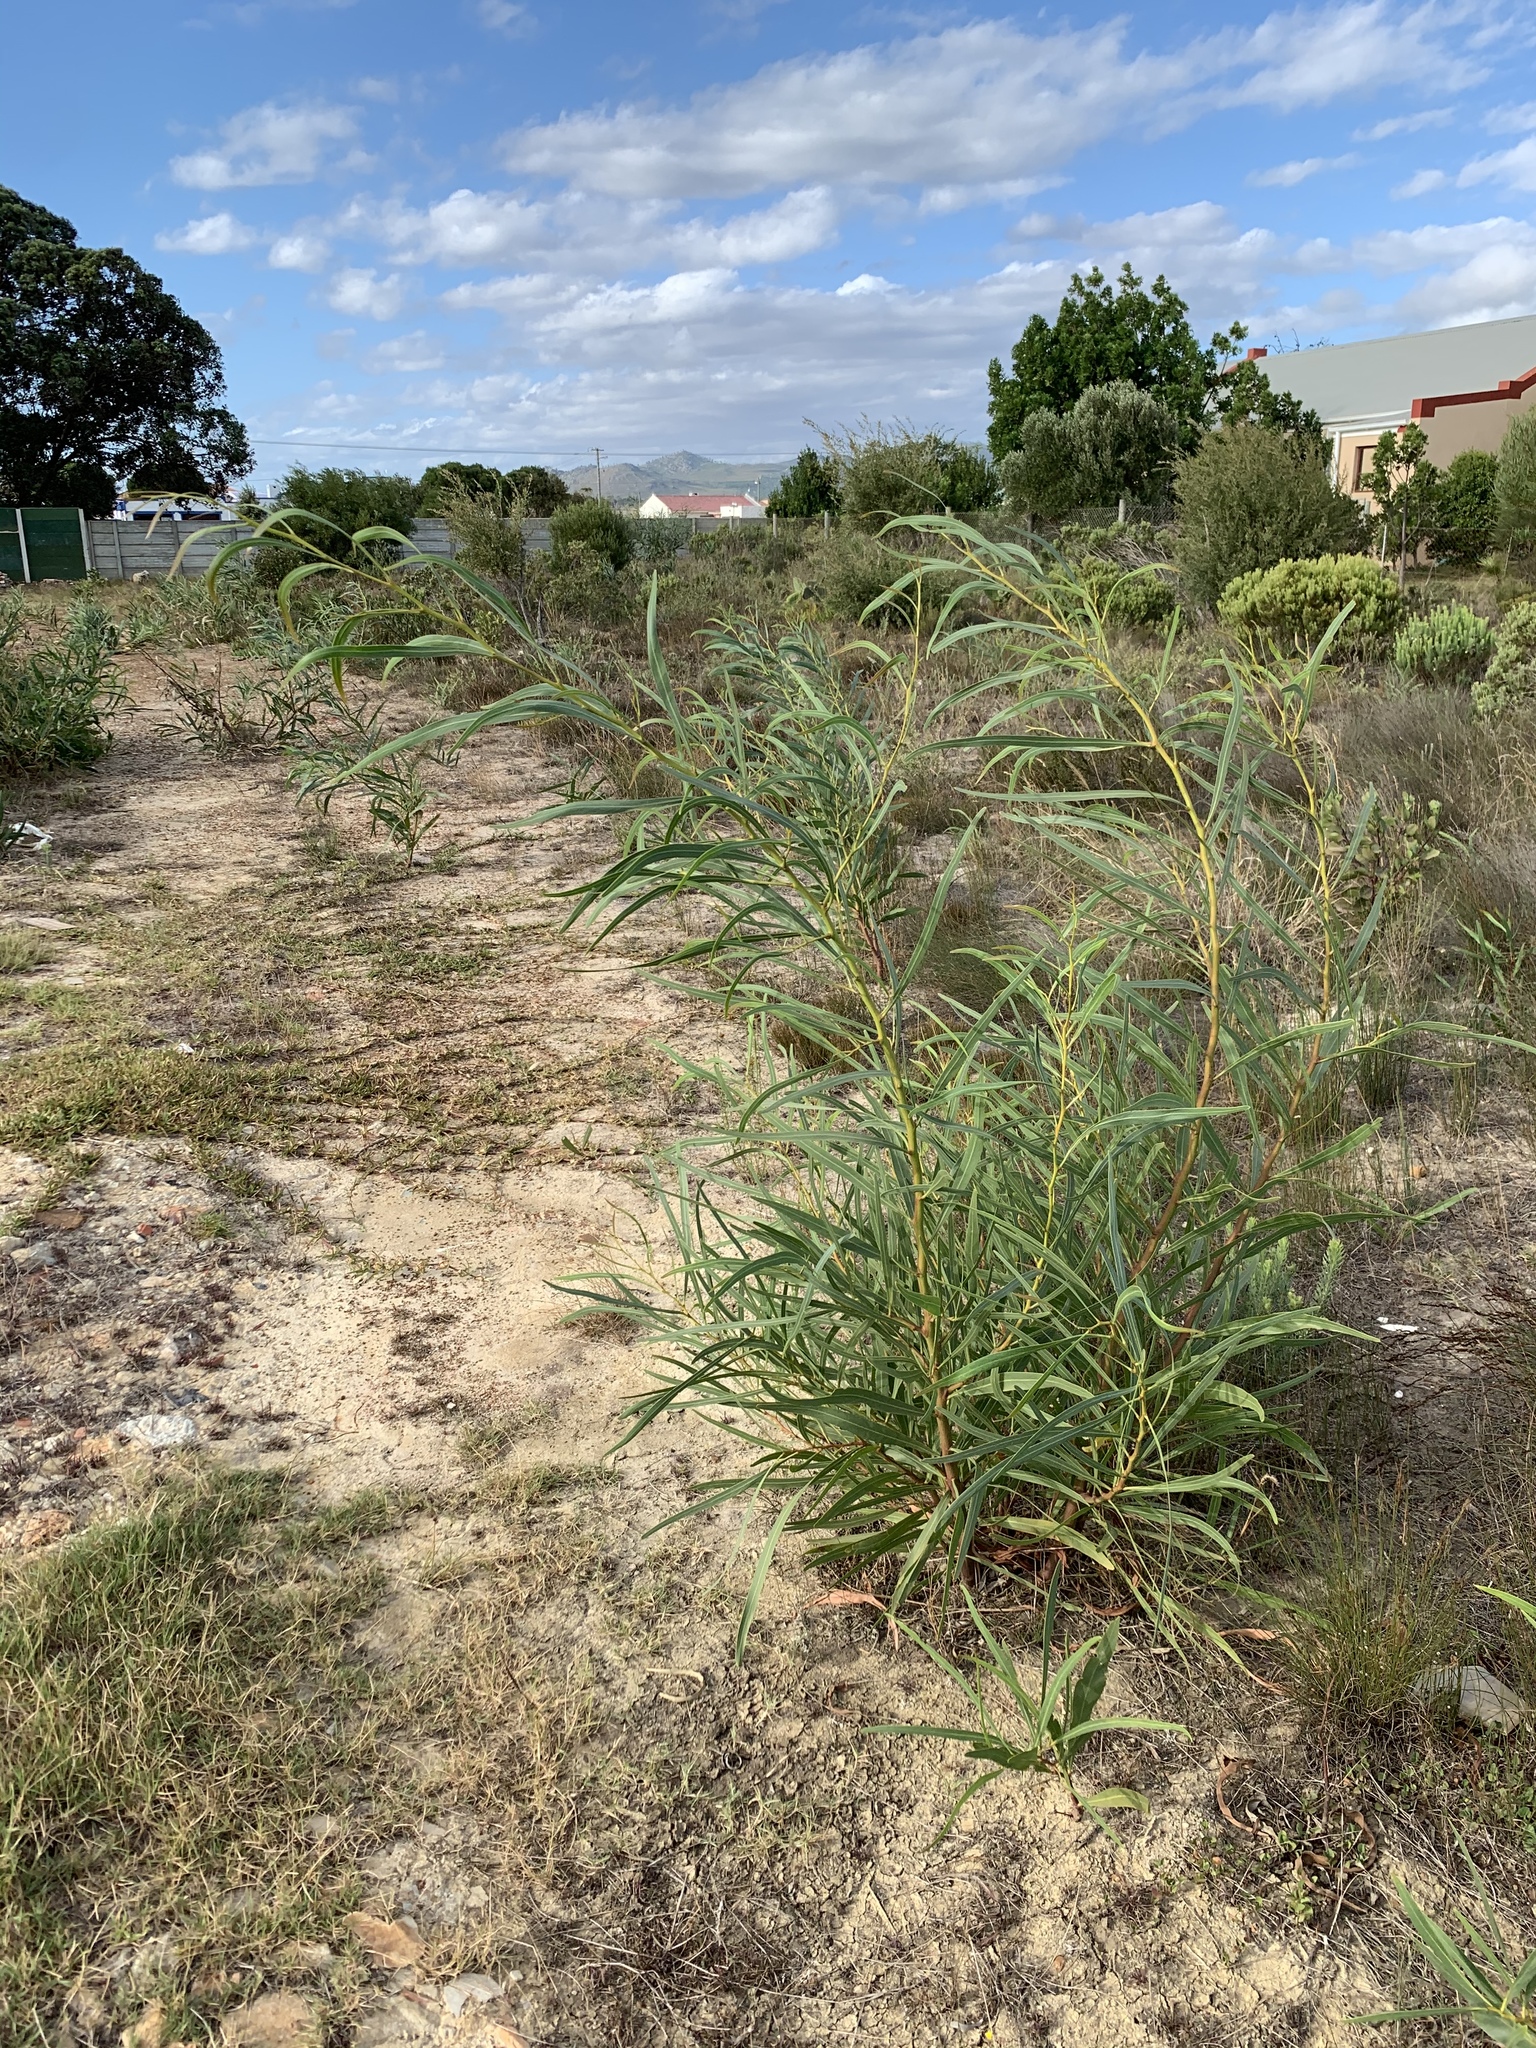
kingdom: Plantae
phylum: Tracheophyta
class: Magnoliopsida
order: Fabales
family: Fabaceae
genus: Acacia
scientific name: Acacia saligna
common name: Orange wattle
